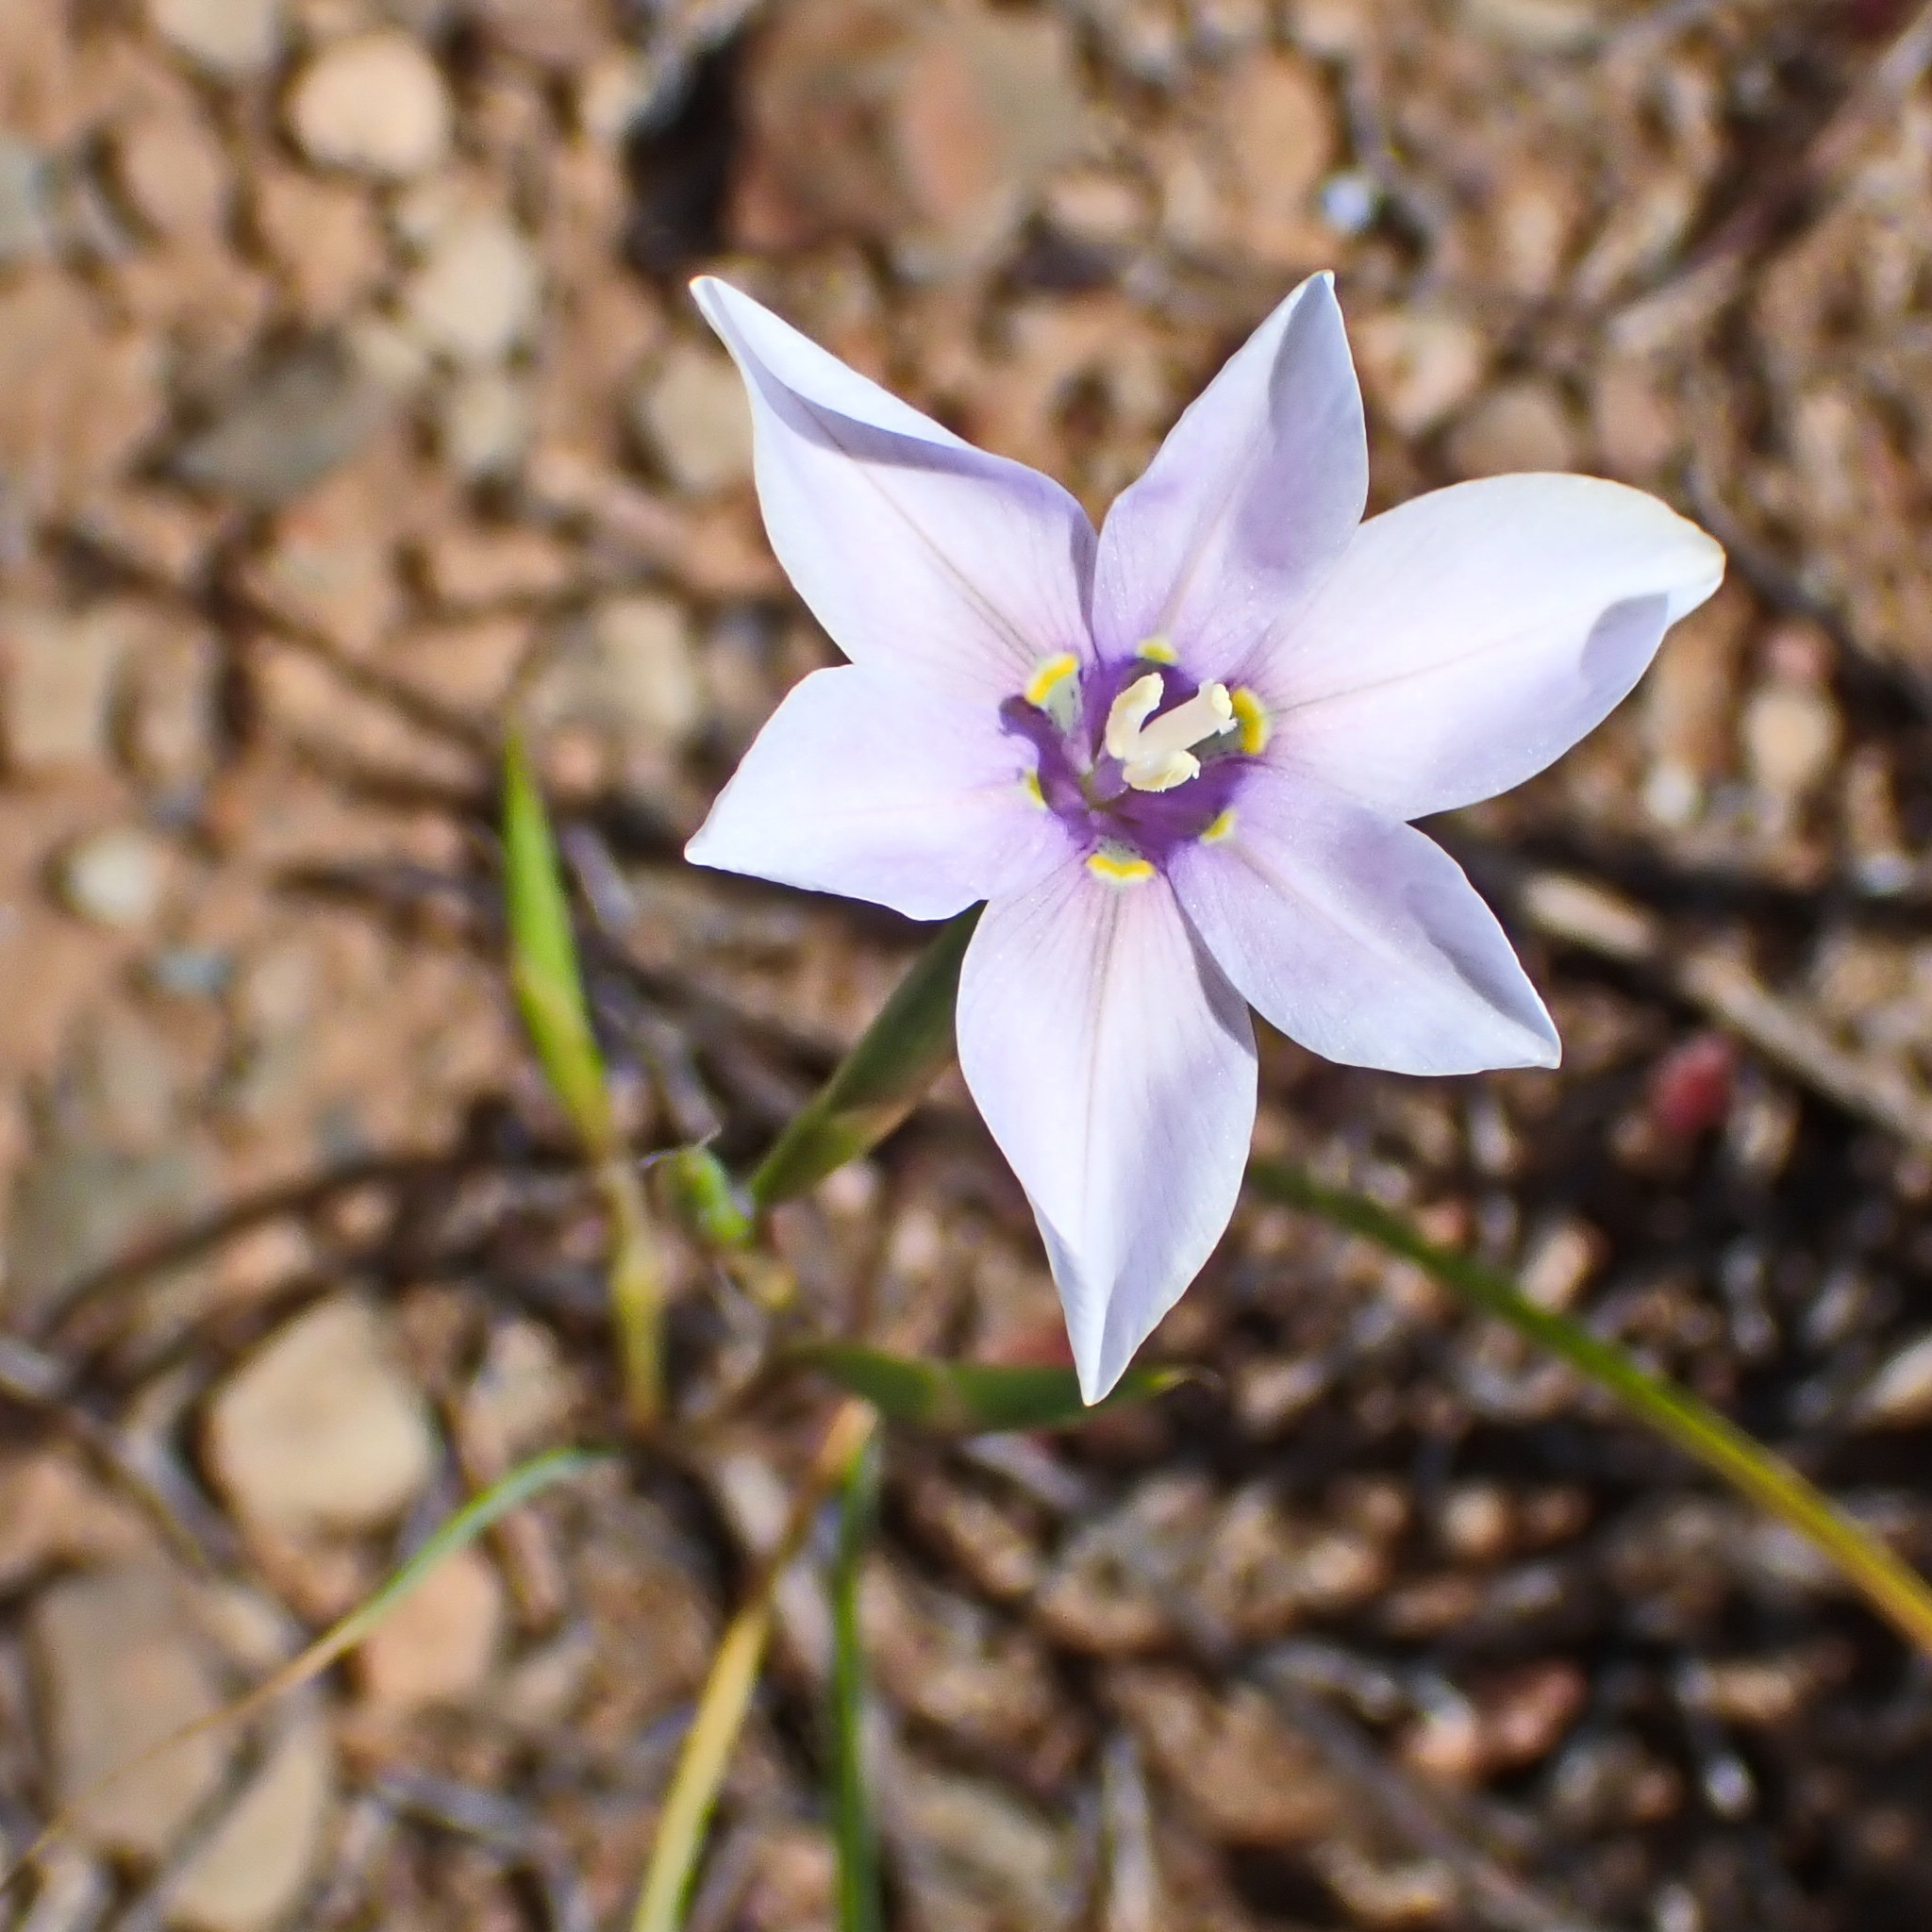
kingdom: Plantae
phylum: Tracheophyta
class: Liliopsida
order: Asparagales
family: Iridaceae
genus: Moraea
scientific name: Moraea polyanthos
